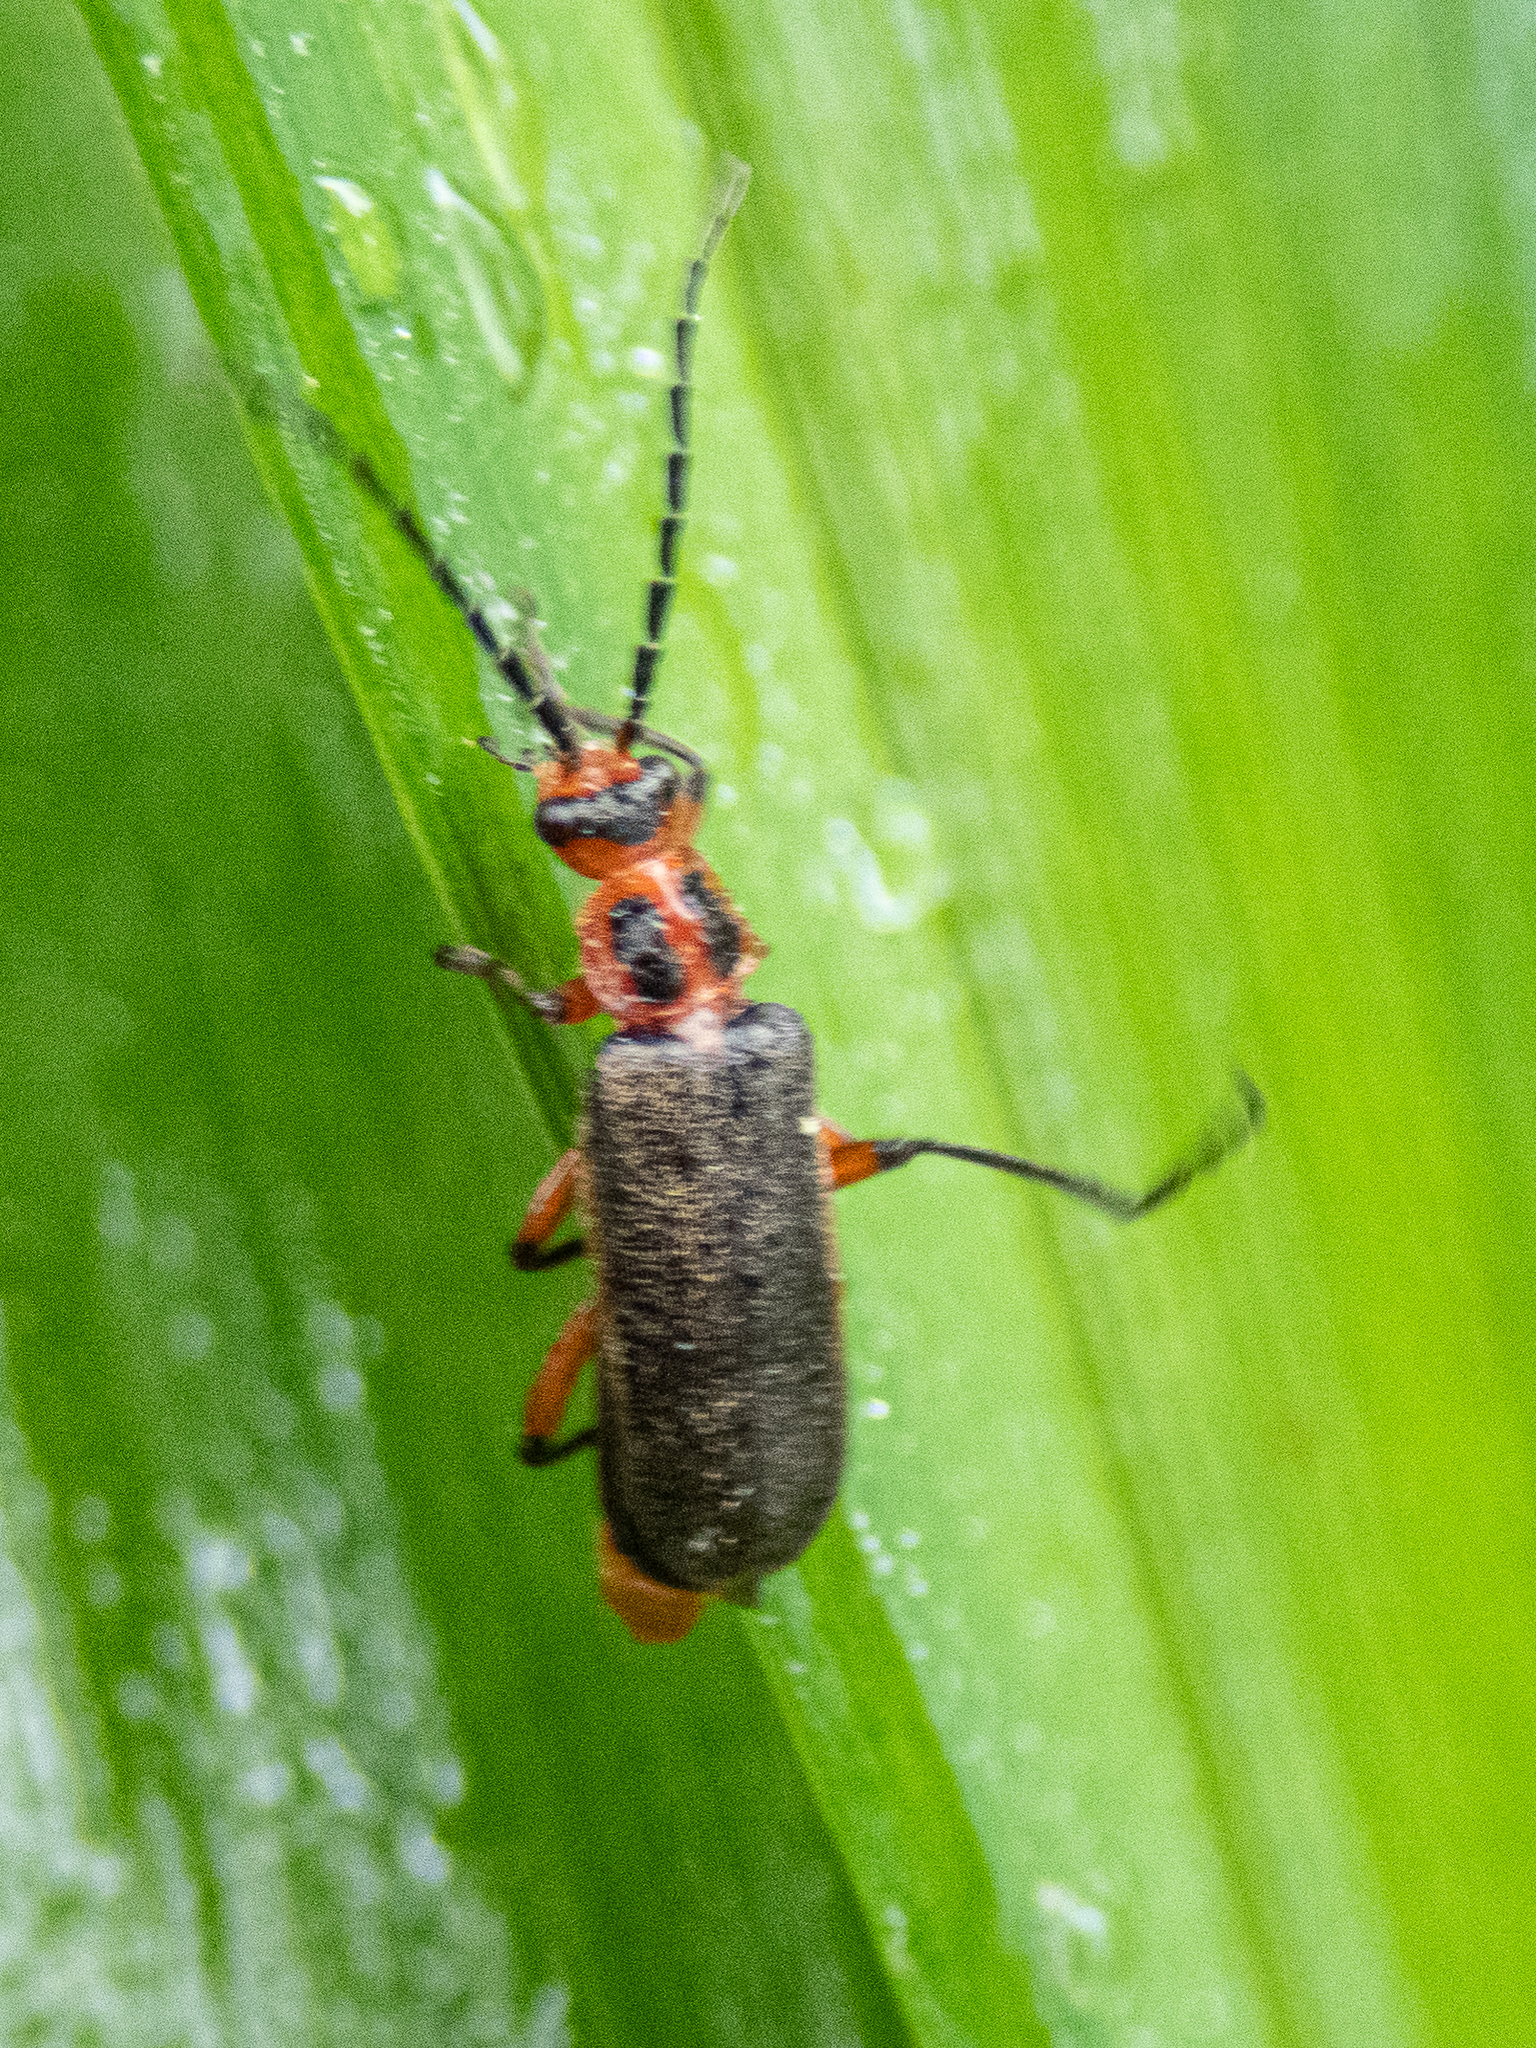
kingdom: Animalia
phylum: Arthropoda
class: Insecta
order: Coleoptera
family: Cantharidae
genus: Atalantycha
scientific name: Atalantycha bilineata
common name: Two-lined leatherwing
